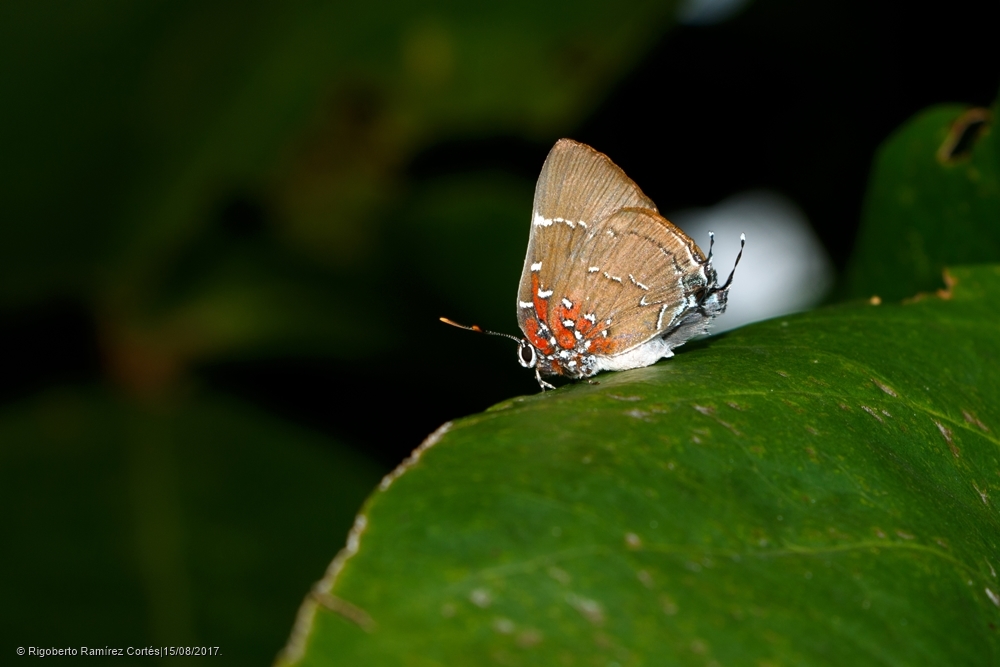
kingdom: Animalia
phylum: Arthropoda
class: Insecta
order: Lepidoptera
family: Lycaenidae
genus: Atlides
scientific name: Atlides Brangas neora
